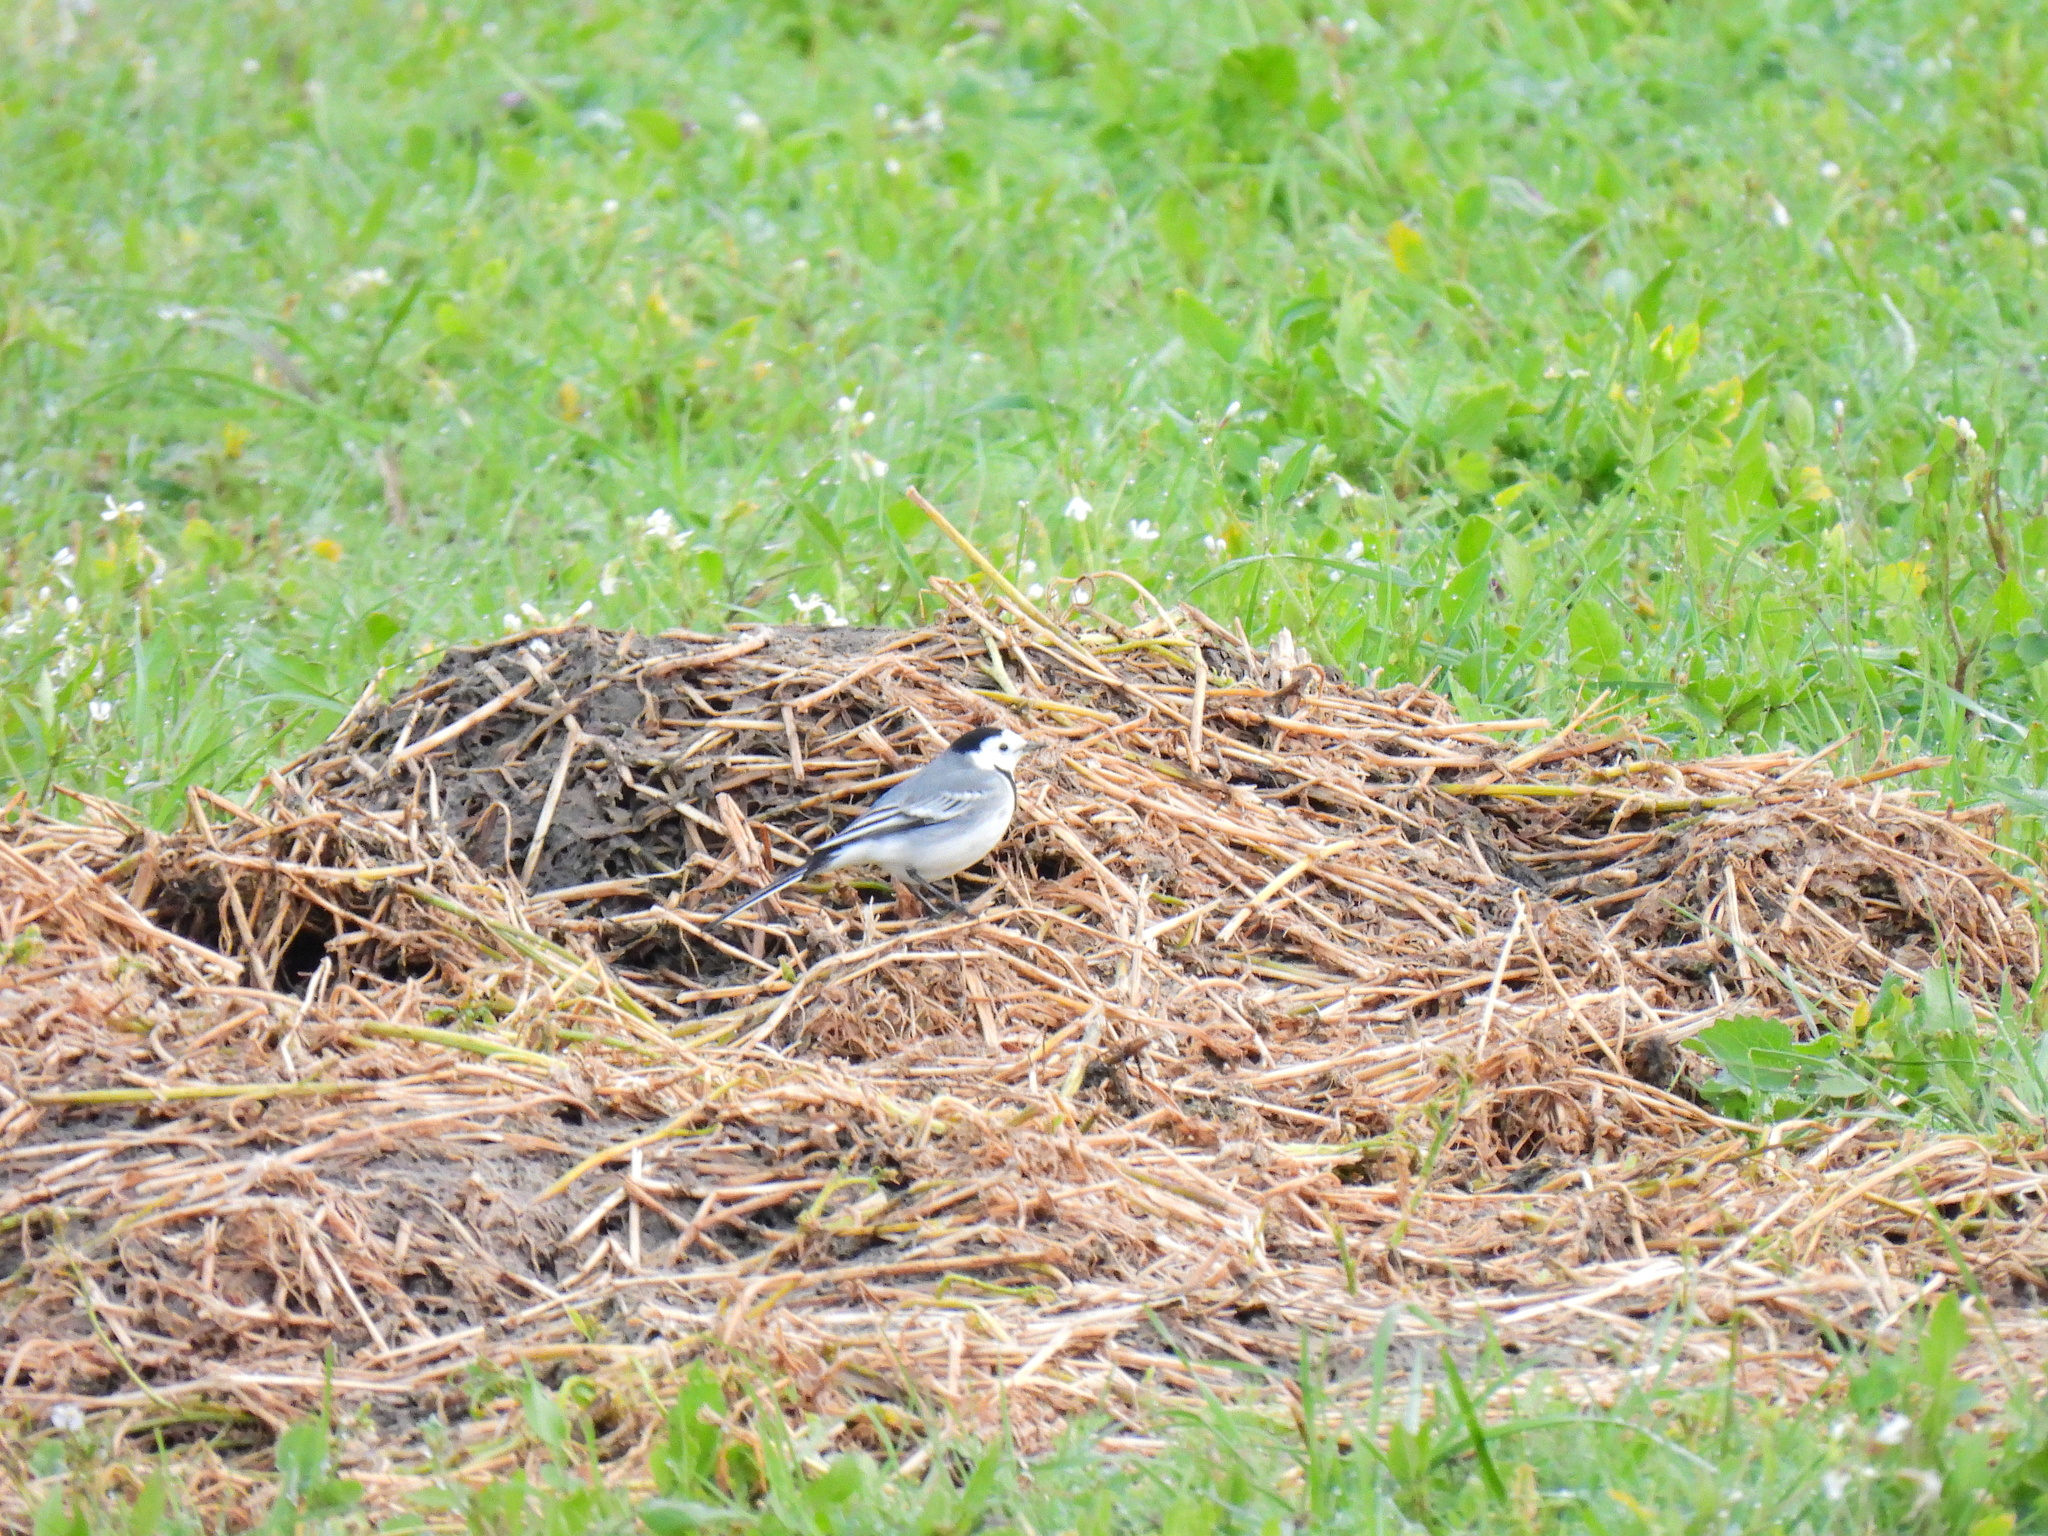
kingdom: Animalia
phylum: Chordata
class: Aves
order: Passeriformes
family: Motacillidae
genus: Motacilla
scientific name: Motacilla alba
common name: White wagtail
